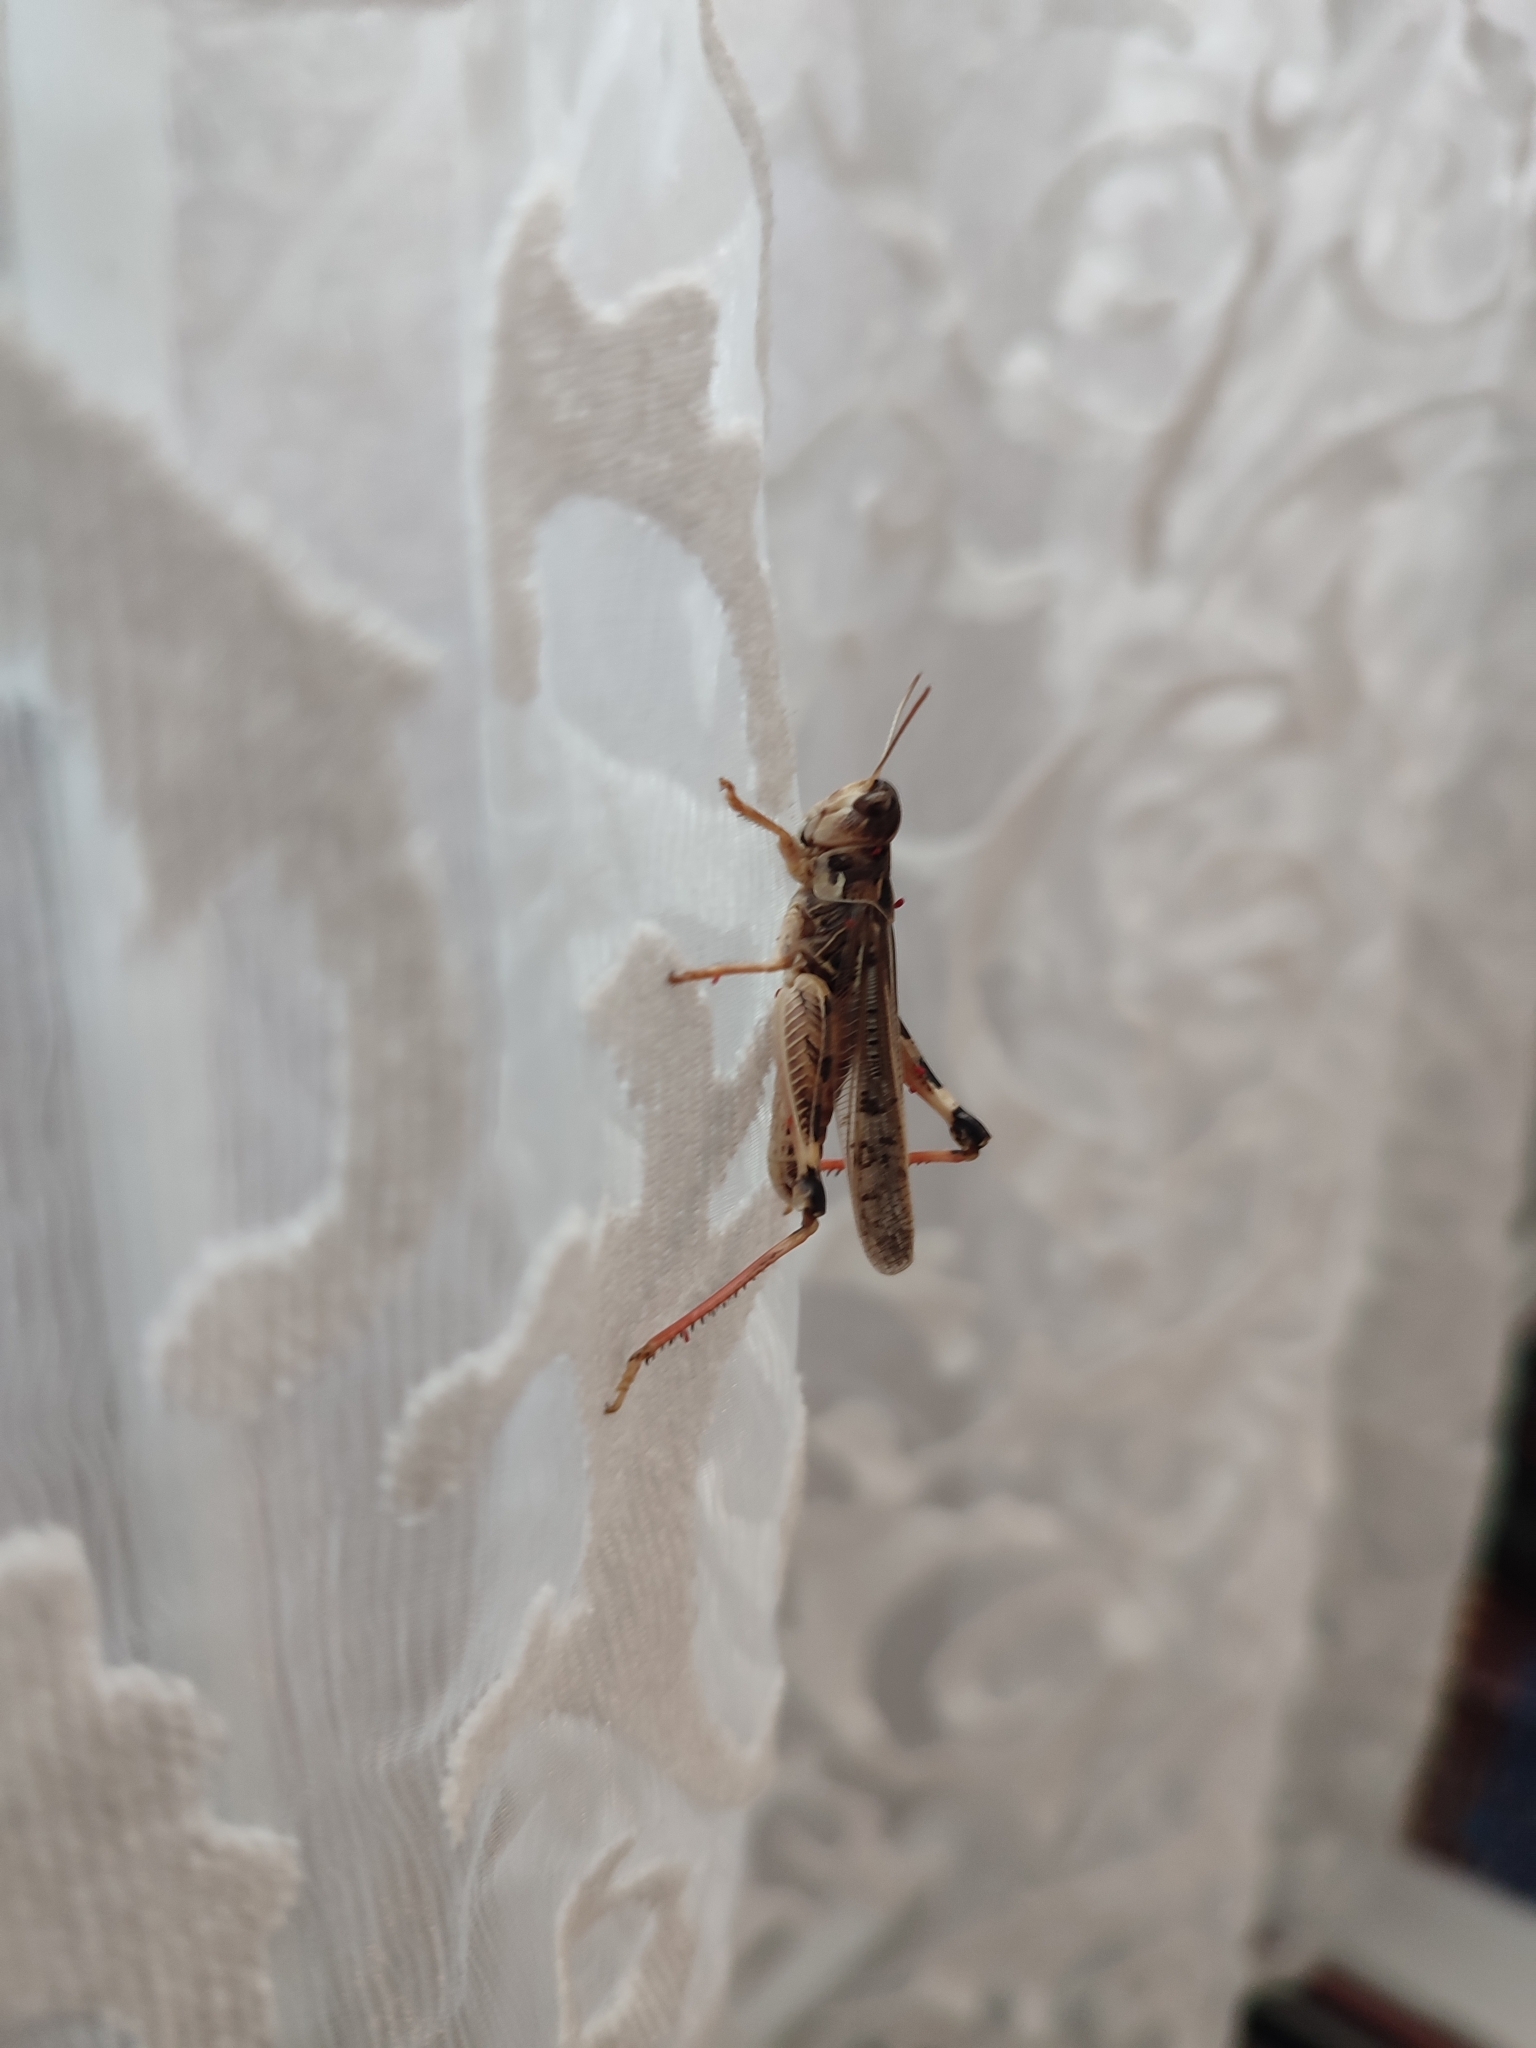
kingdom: Animalia
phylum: Arthropoda
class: Insecta
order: Orthoptera
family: Acrididae
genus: Dociostaurus
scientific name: Dociostaurus maroccanus
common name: Moroccan locust
